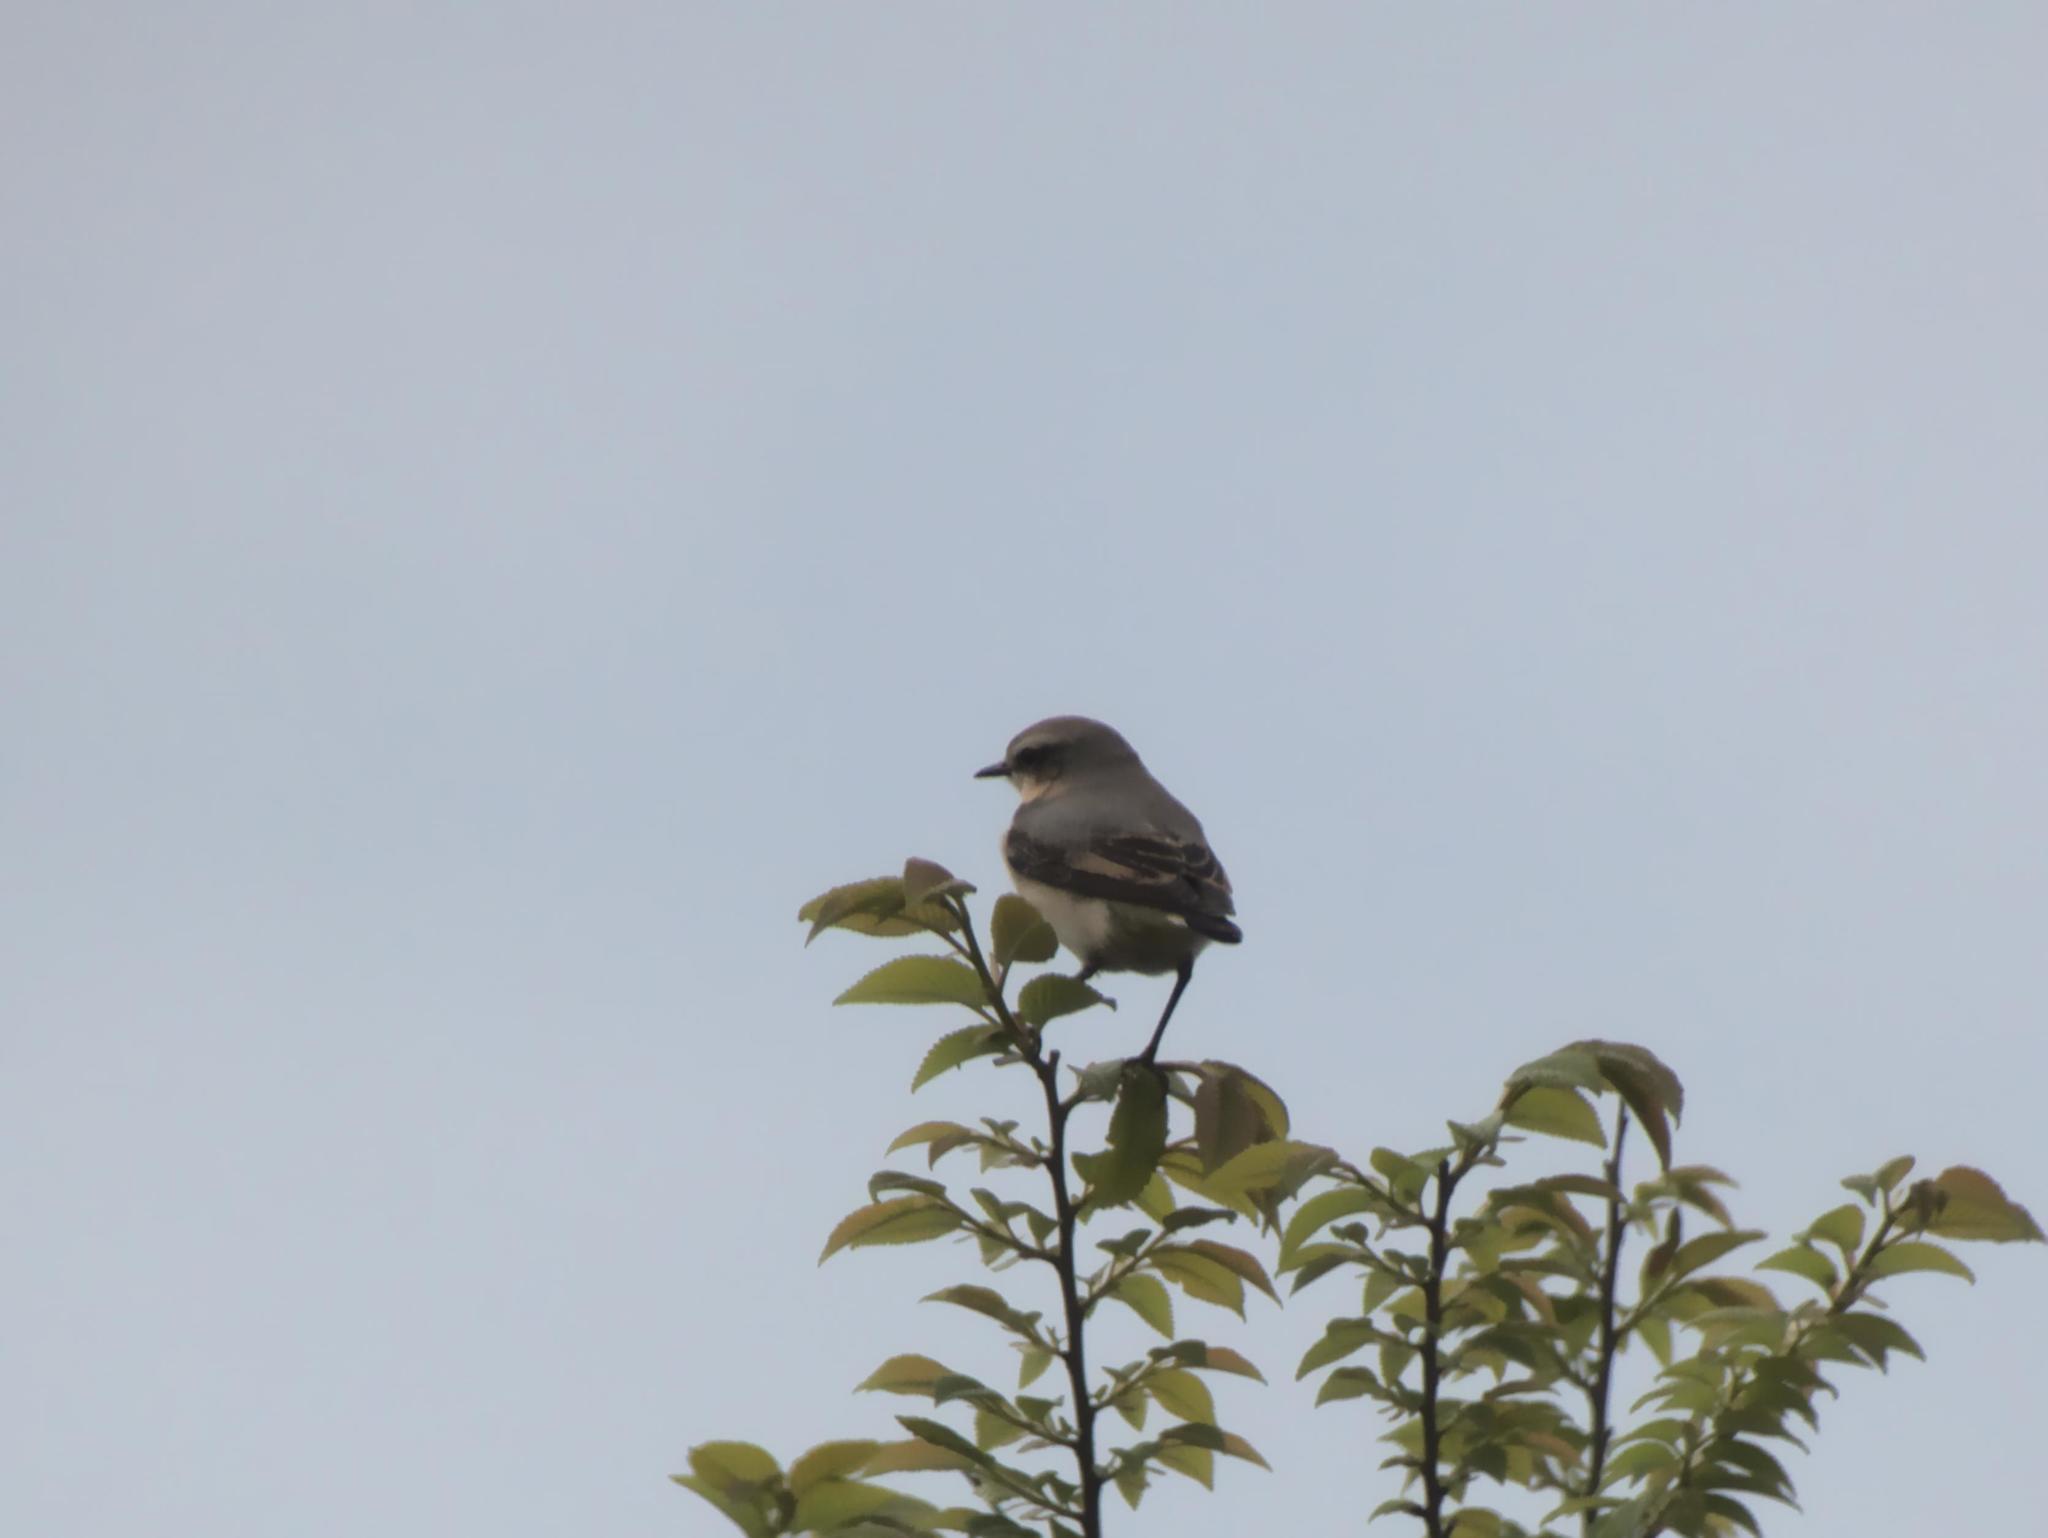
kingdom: Animalia
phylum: Chordata
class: Aves
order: Passeriformes
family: Muscicapidae
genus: Oenanthe
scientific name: Oenanthe oenanthe
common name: Northern wheatear
